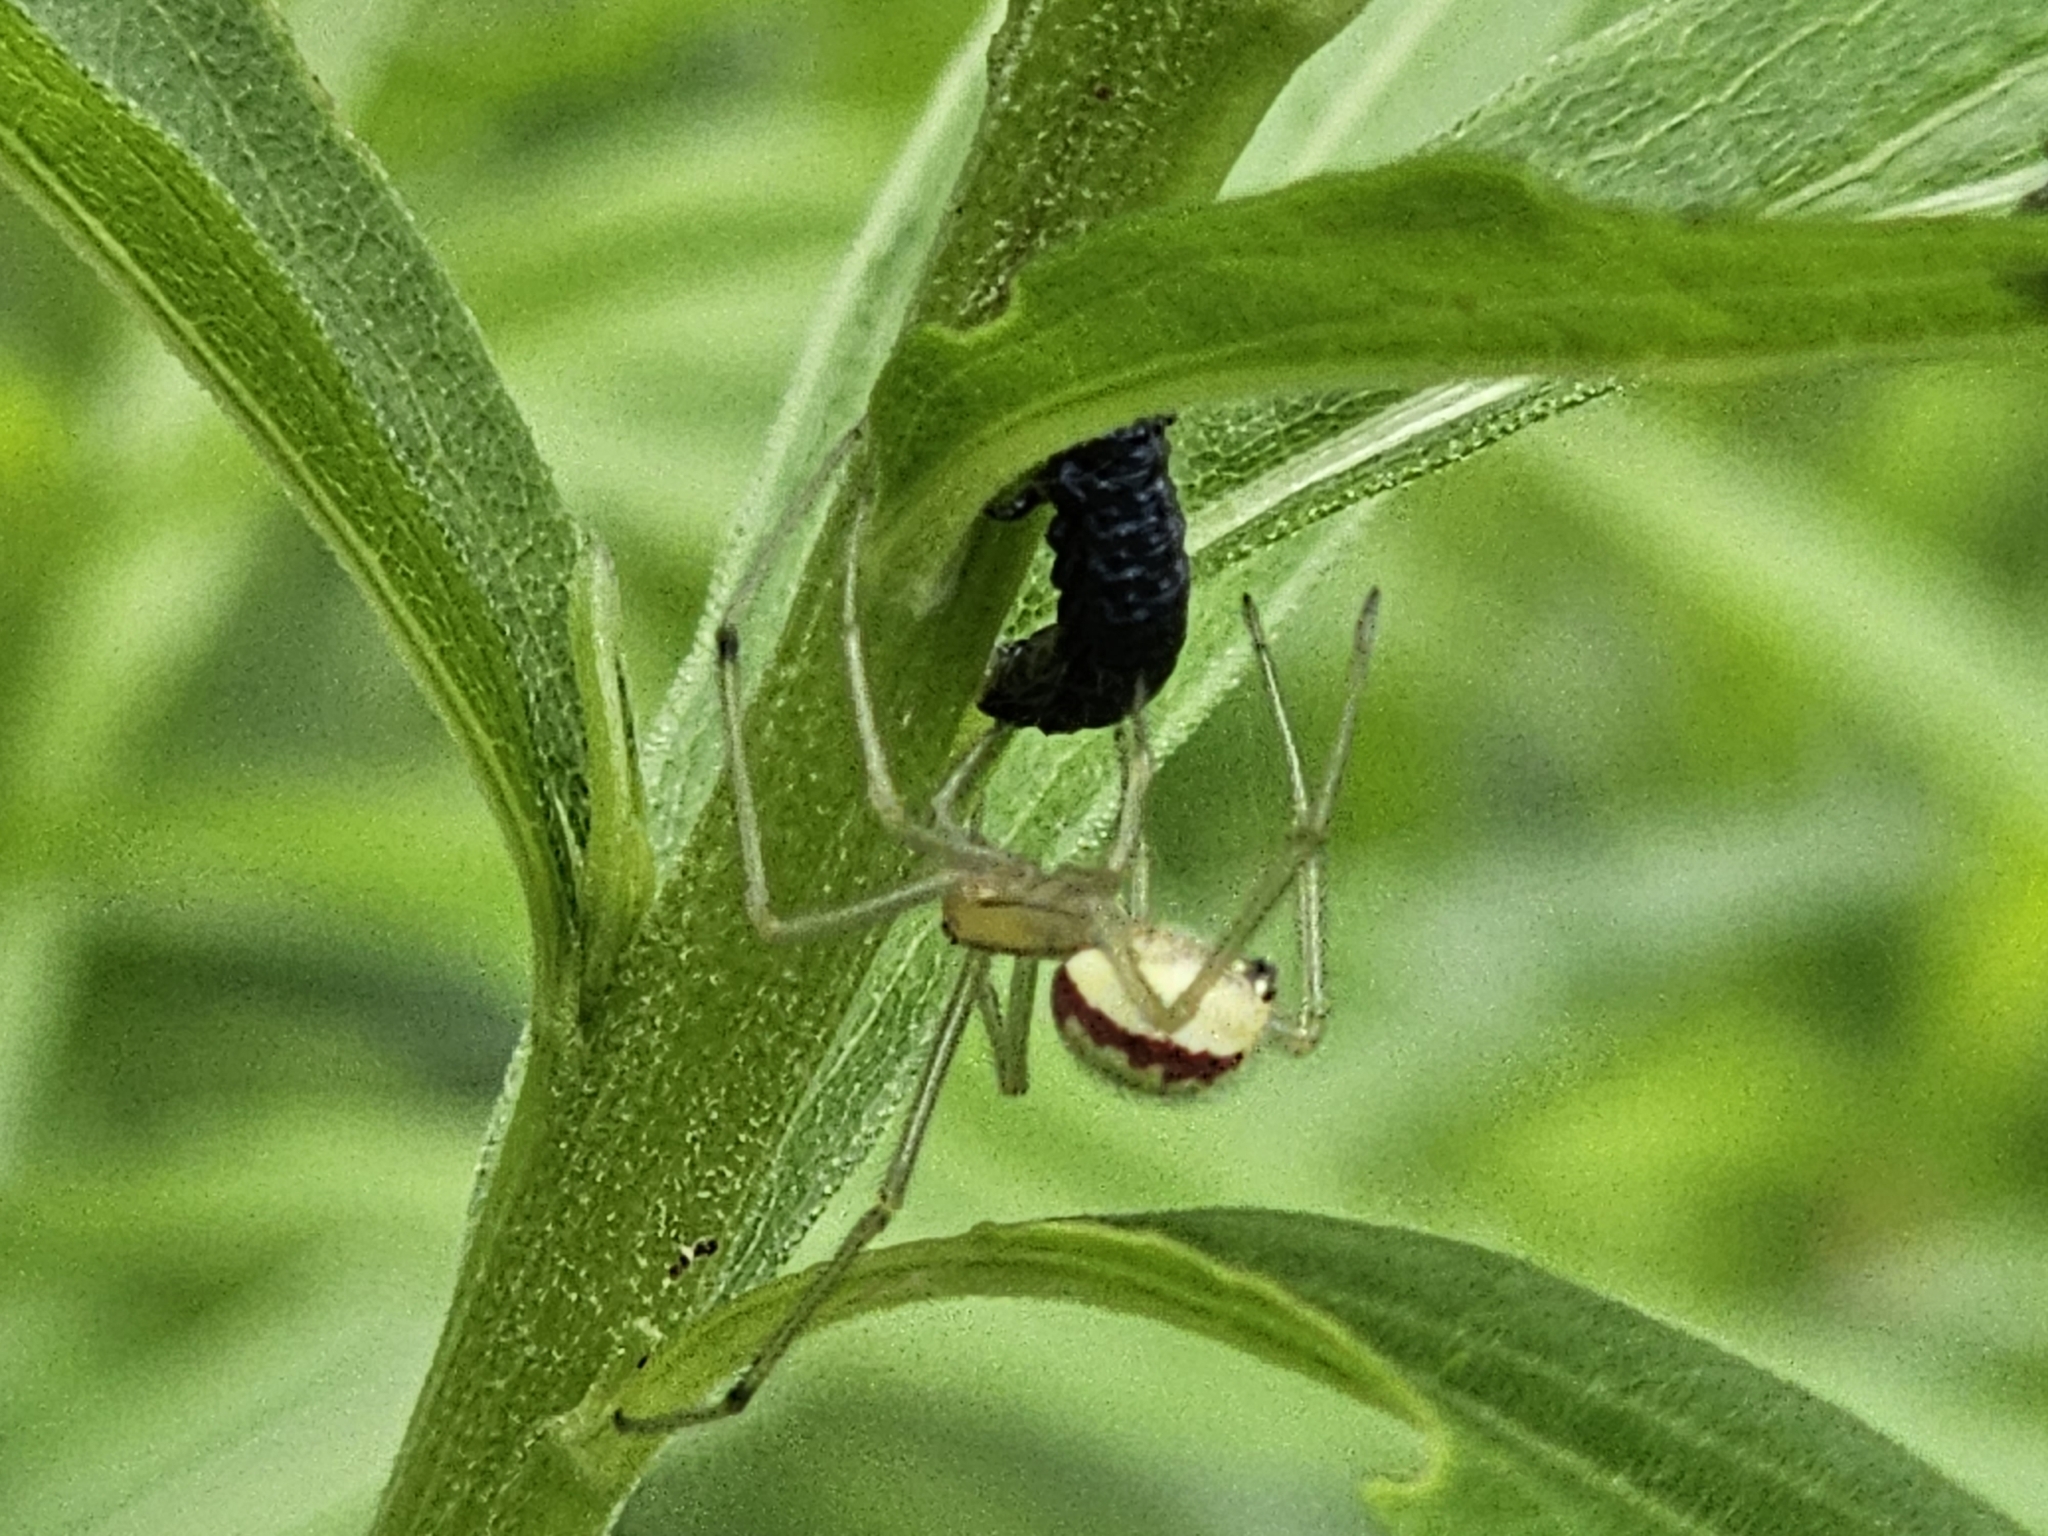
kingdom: Animalia
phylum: Arthropoda
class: Arachnida
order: Araneae
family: Theridiidae
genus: Enoplognatha
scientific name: Enoplognatha ovata
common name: Common candy-striped spider
